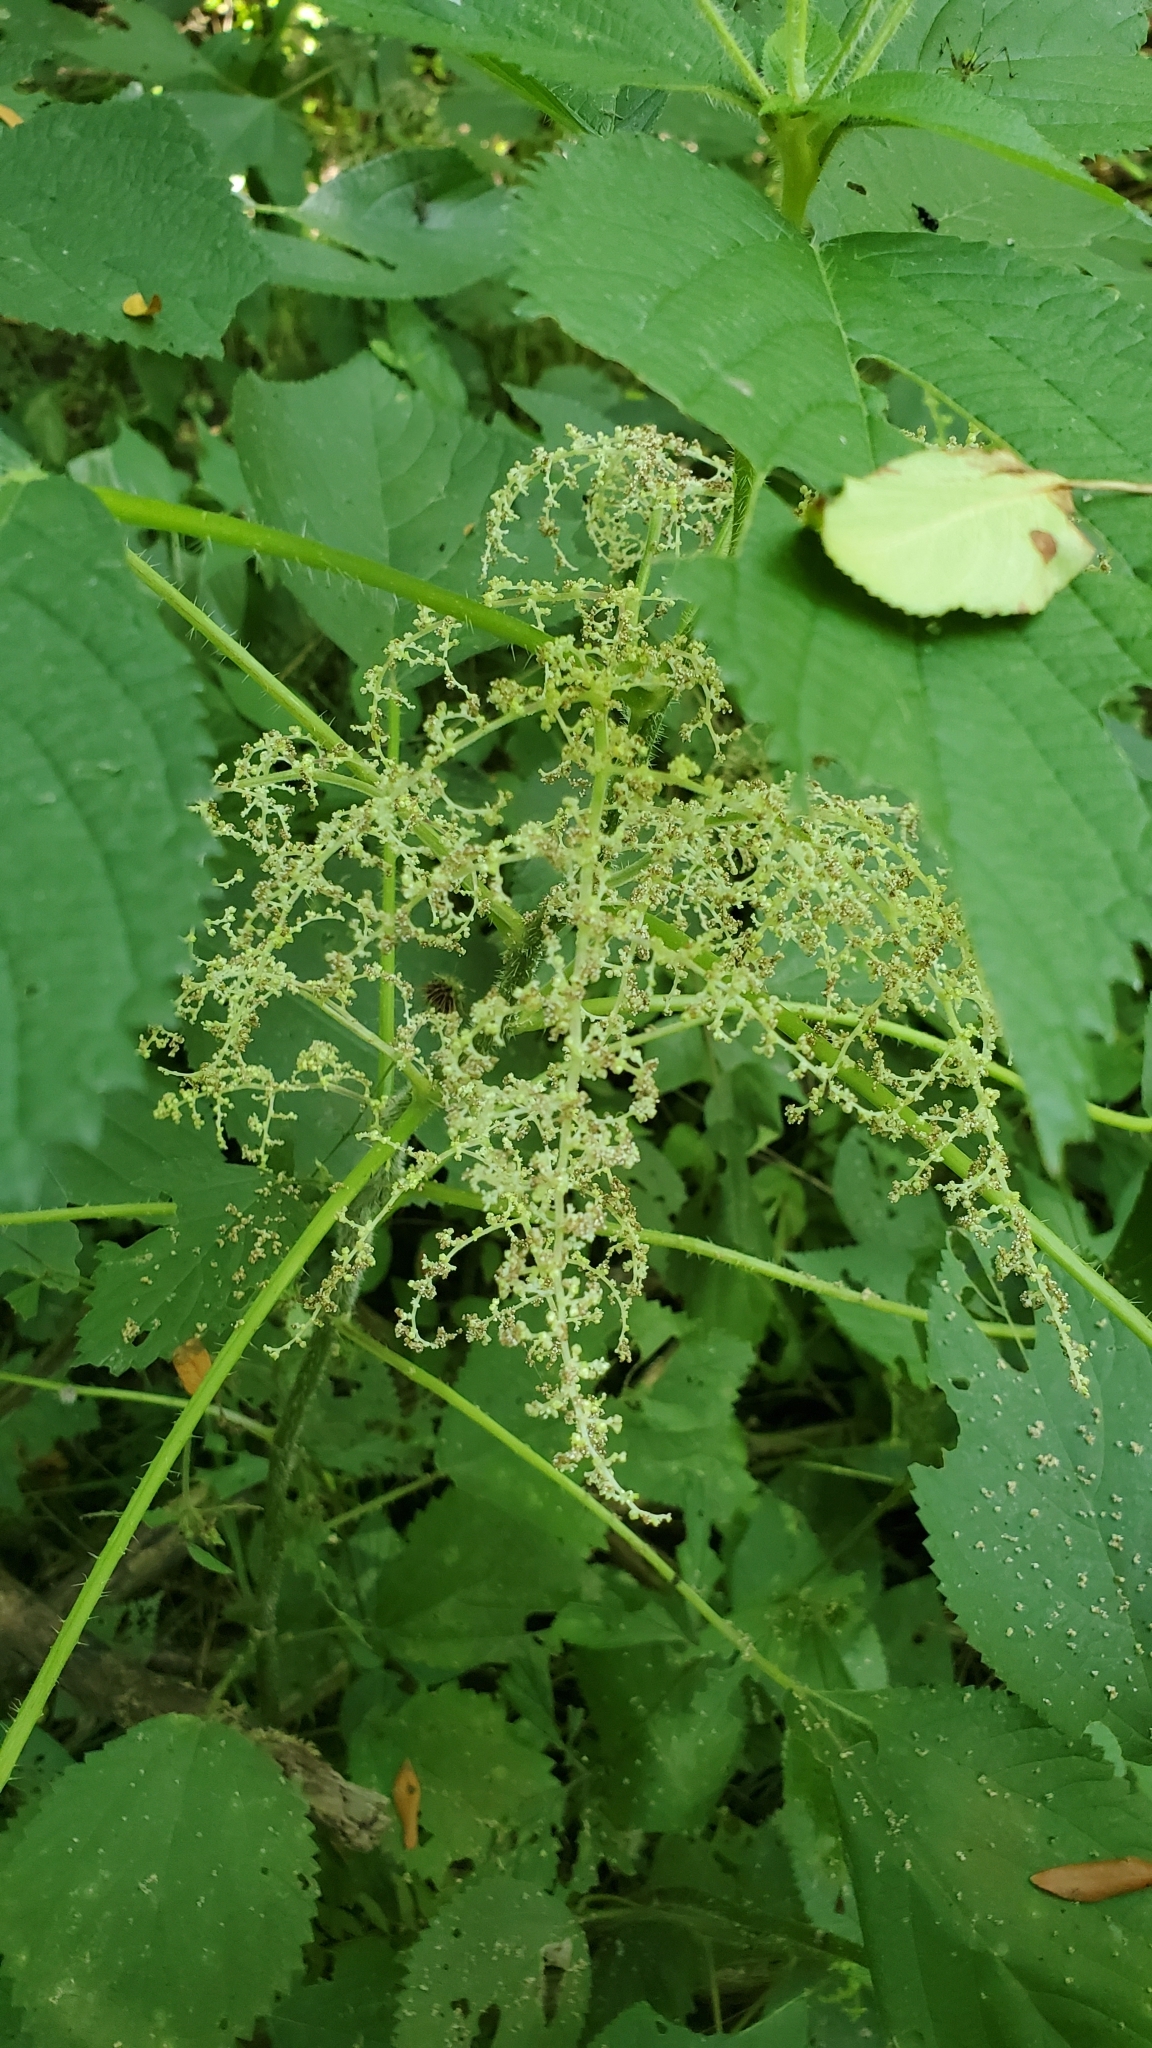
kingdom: Plantae
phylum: Tracheophyta
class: Magnoliopsida
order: Rosales
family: Urticaceae
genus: Laportea
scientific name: Laportea canadensis
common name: Canada nettle
